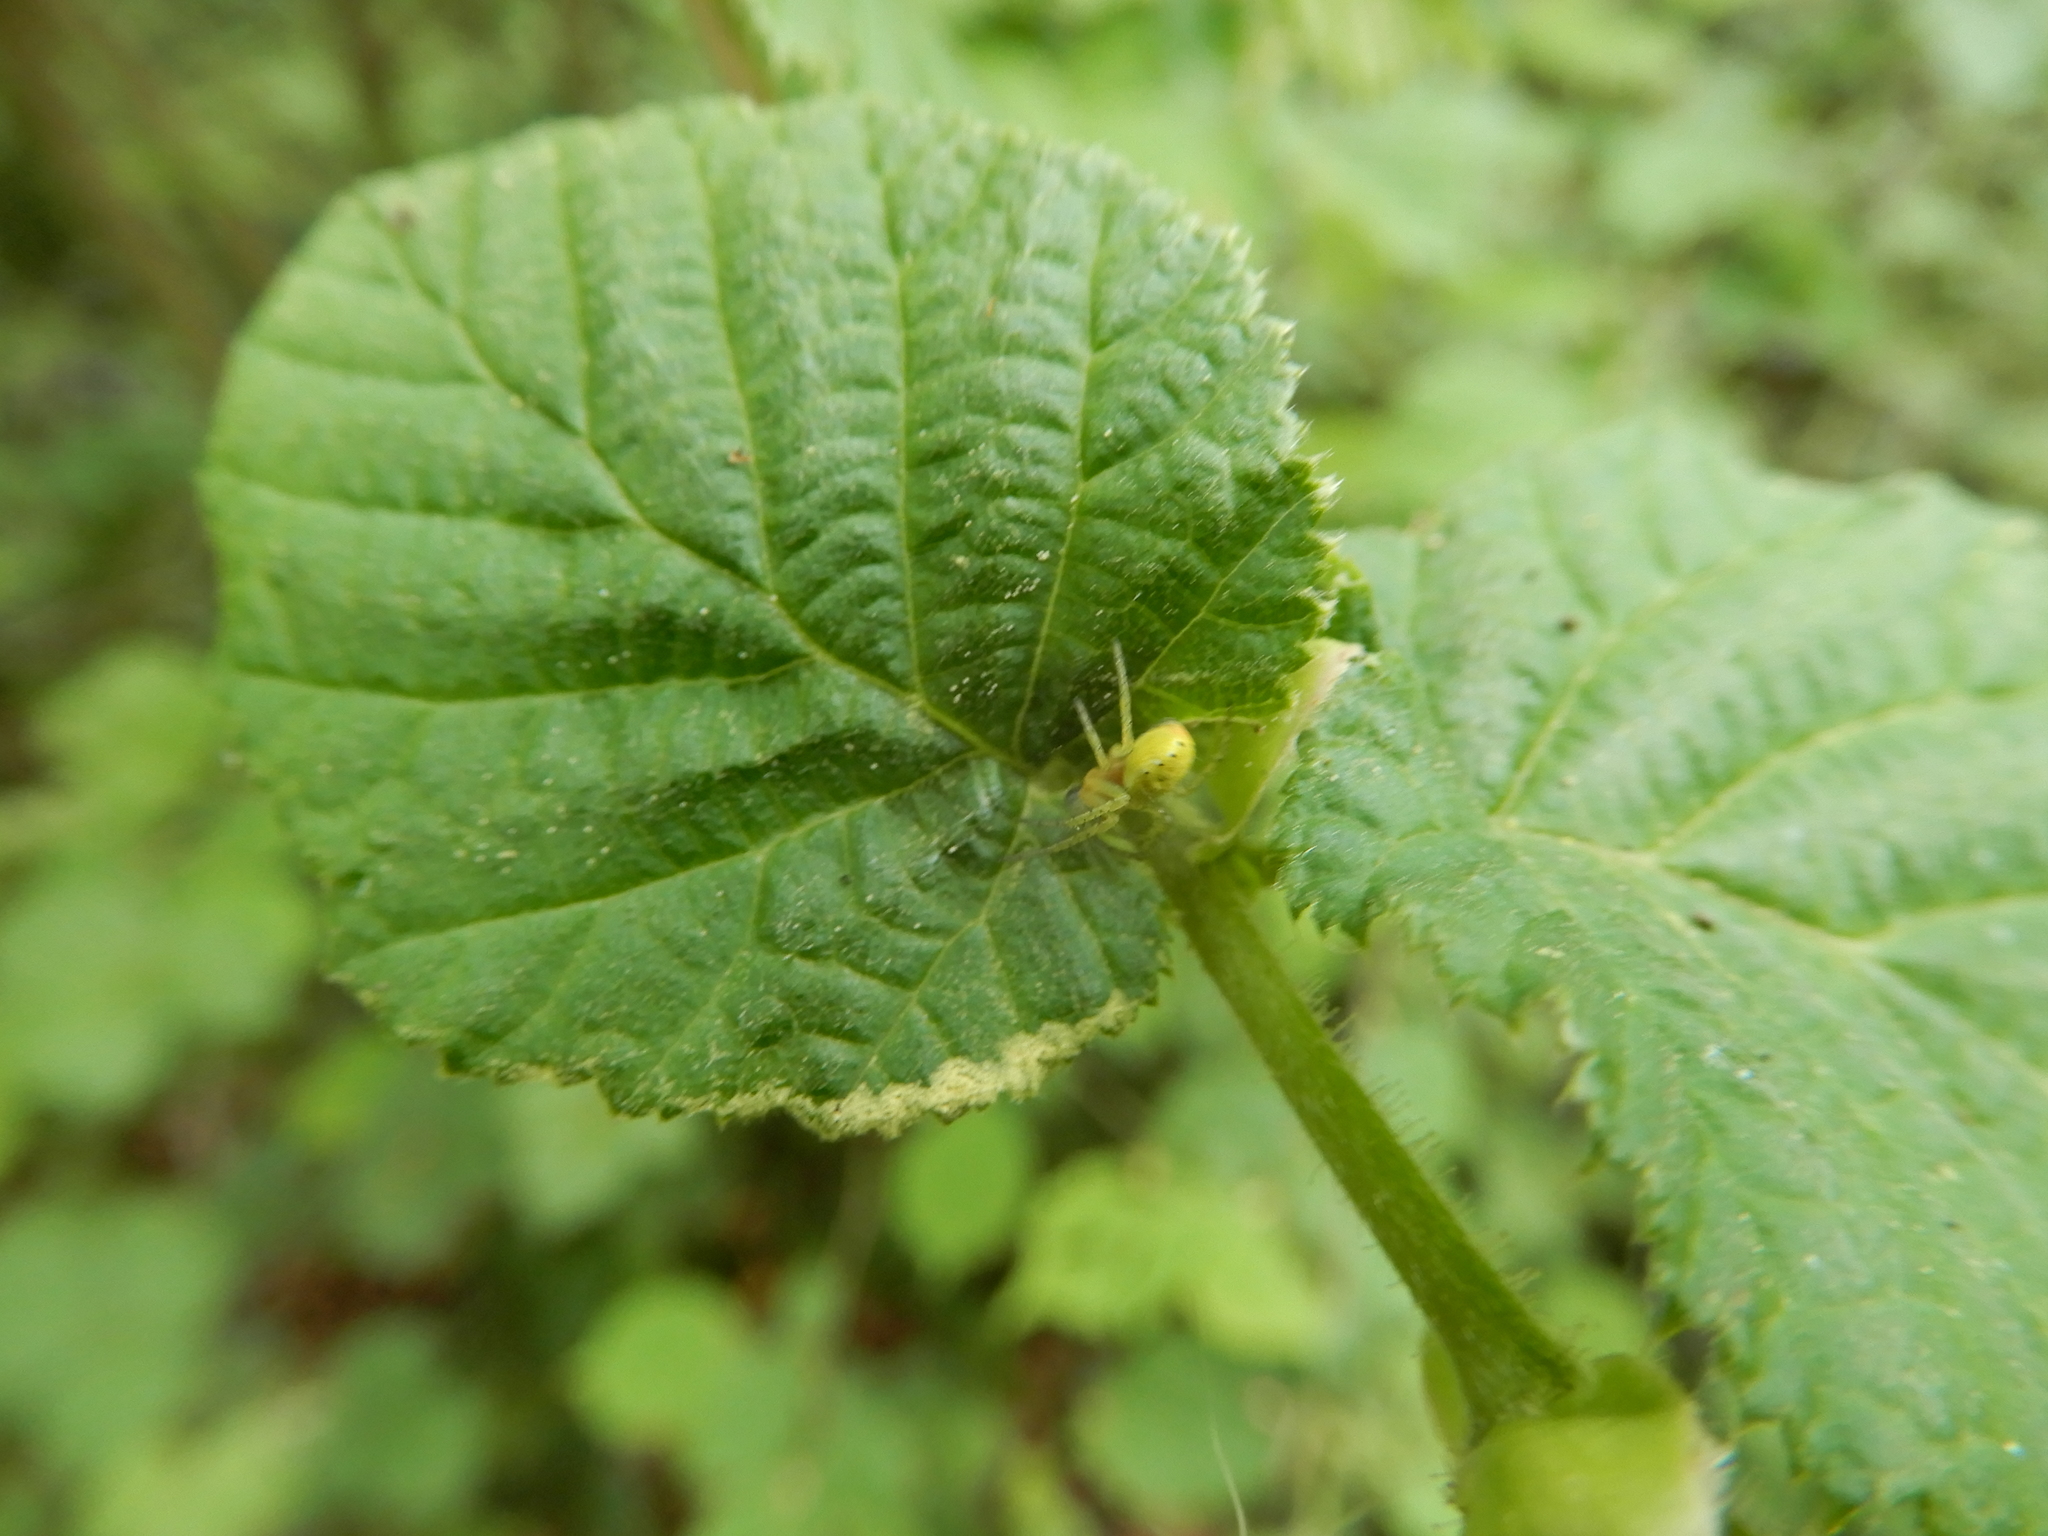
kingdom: Animalia
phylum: Arthropoda
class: Arachnida
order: Araneae
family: Araneidae
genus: Araniella
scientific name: Araniella
